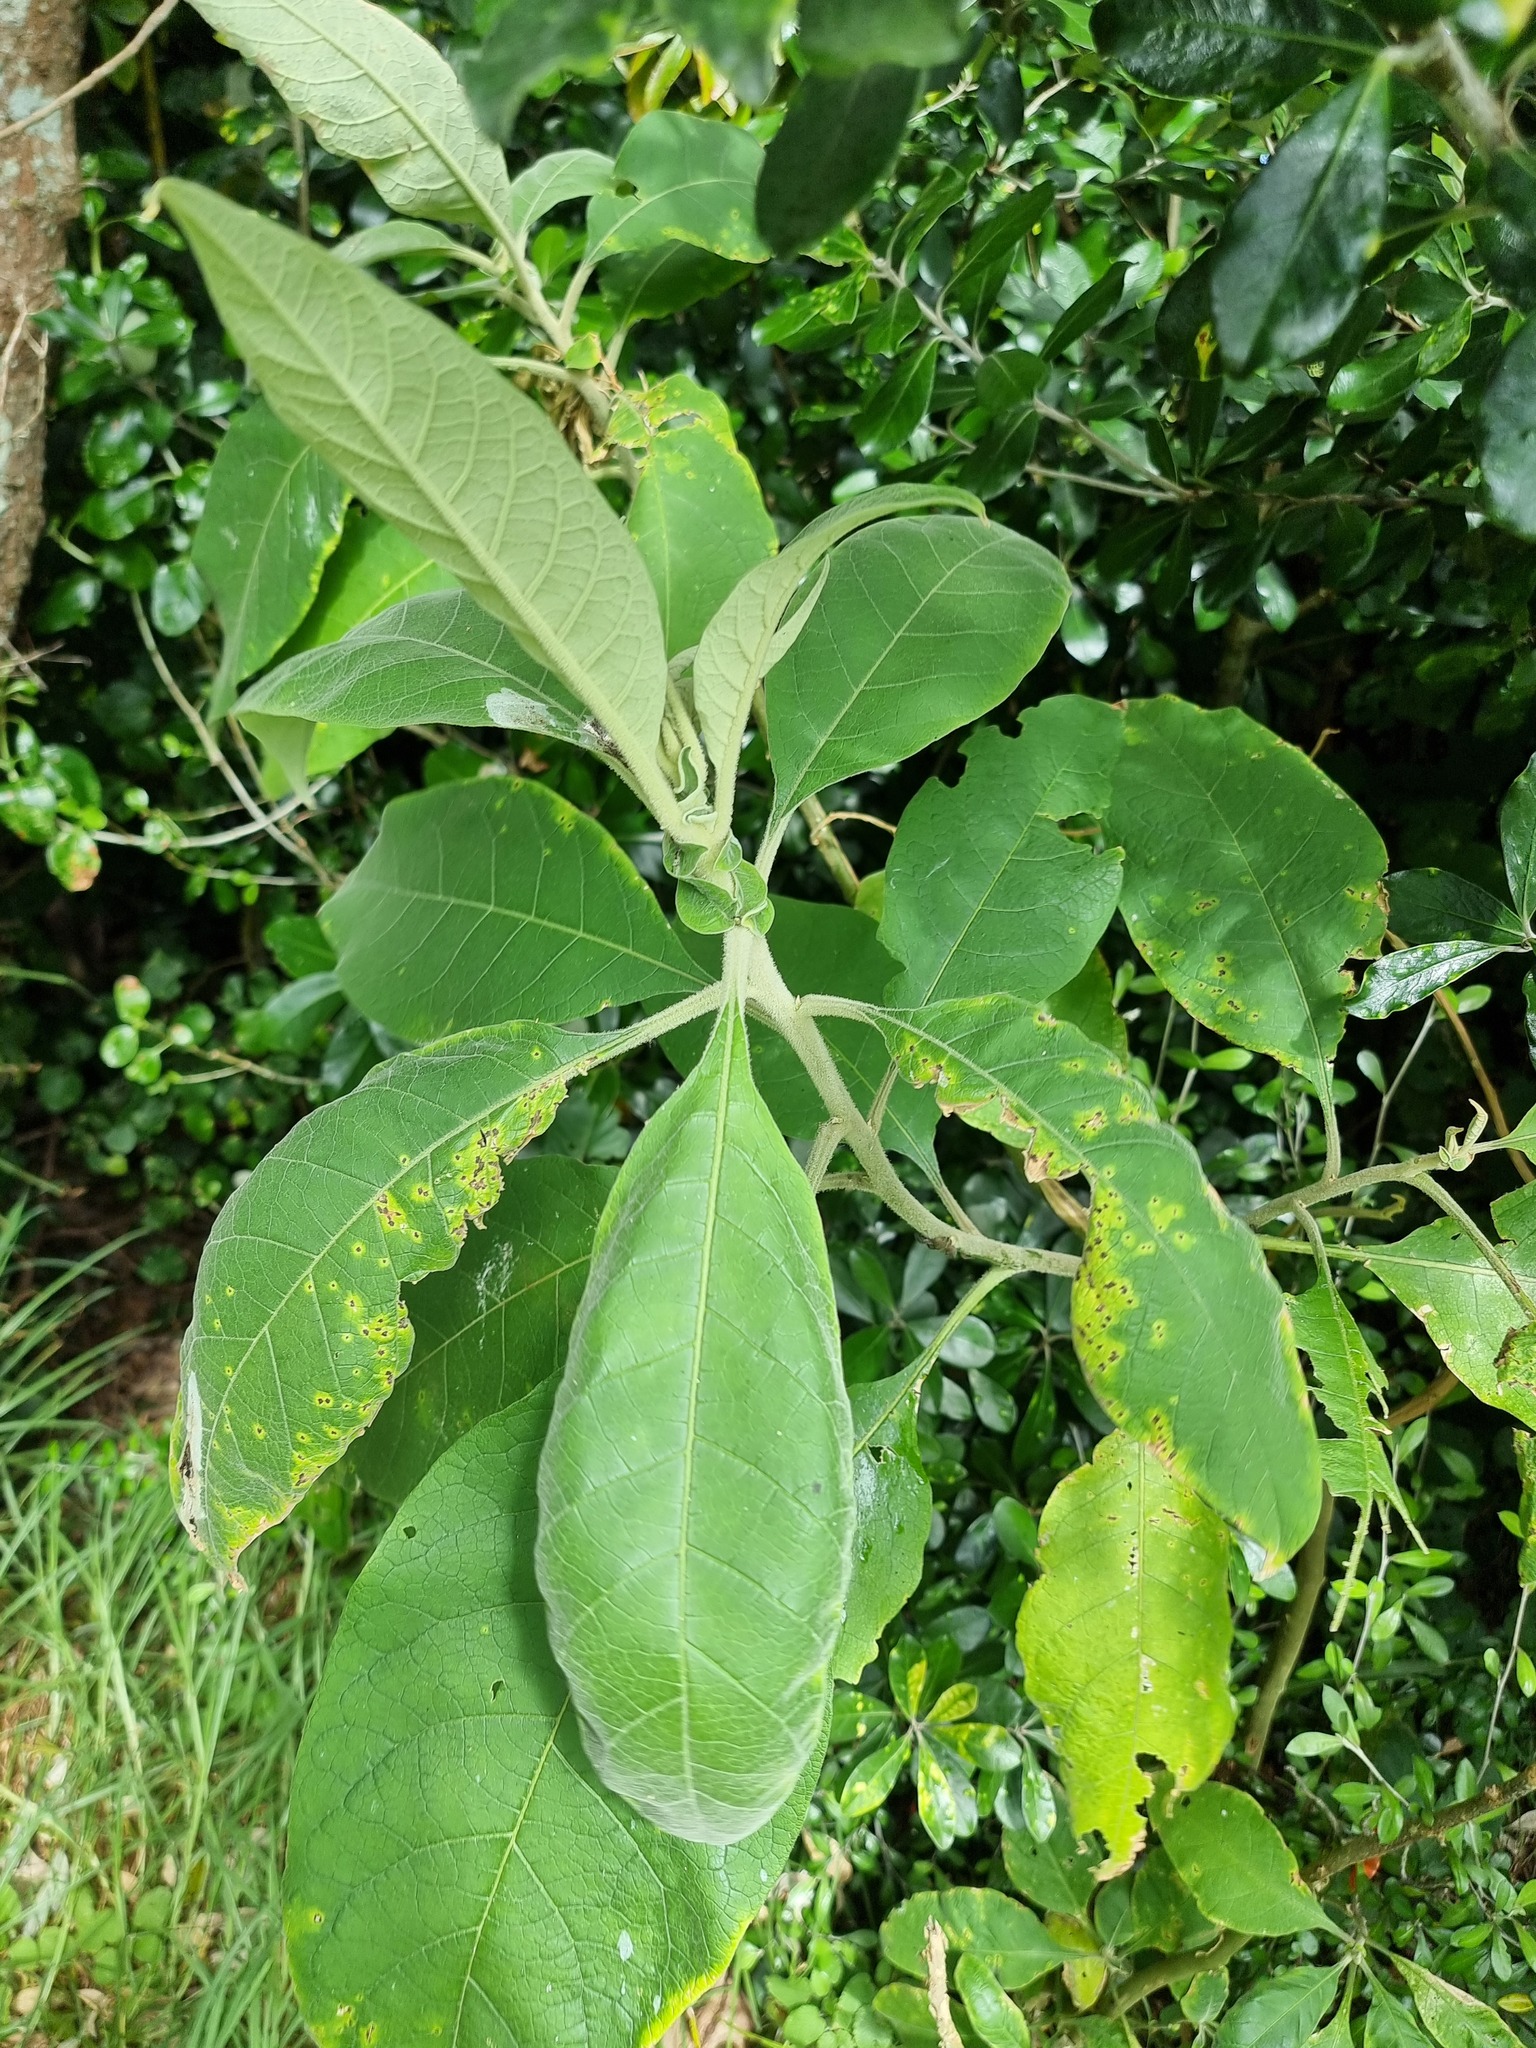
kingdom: Plantae
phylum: Tracheophyta
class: Magnoliopsida
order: Solanales
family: Solanaceae
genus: Solanum
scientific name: Solanum mauritianum
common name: Earleaf nightshade
